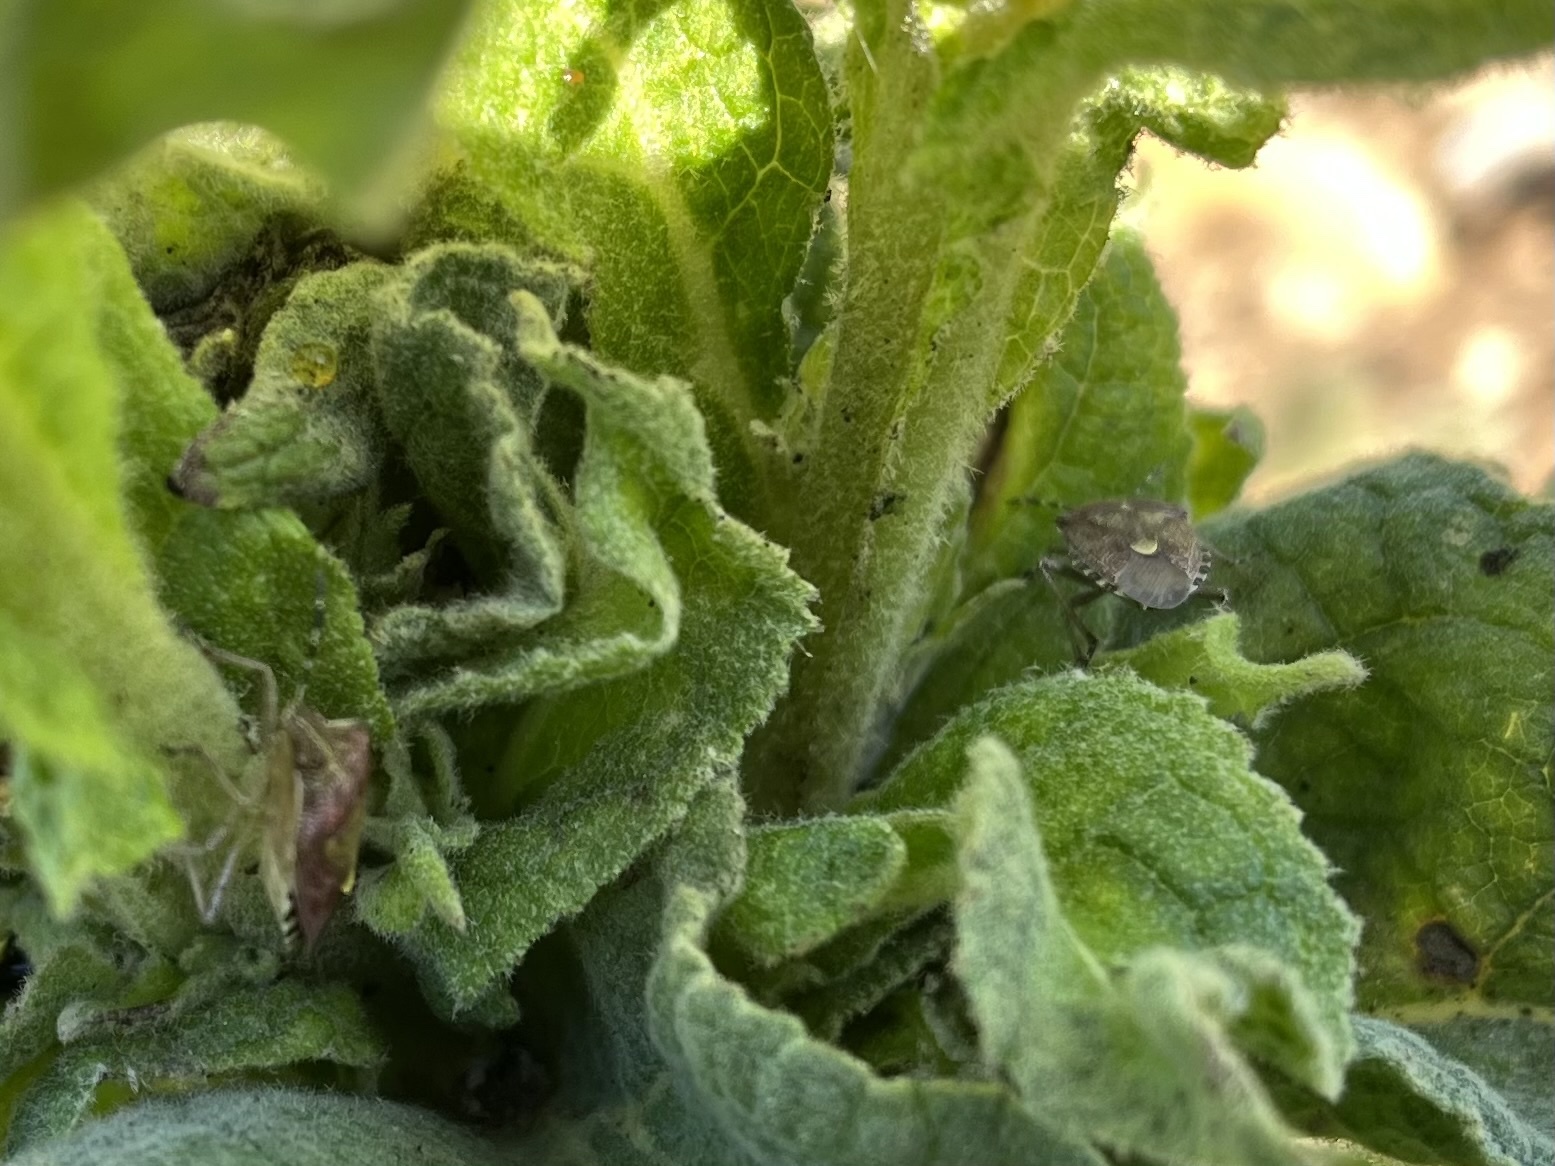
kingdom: Animalia
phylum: Arthropoda
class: Insecta
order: Hemiptera
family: Pentatomidae
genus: Dolycoris
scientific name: Dolycoris baccarum
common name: Sloe bug
